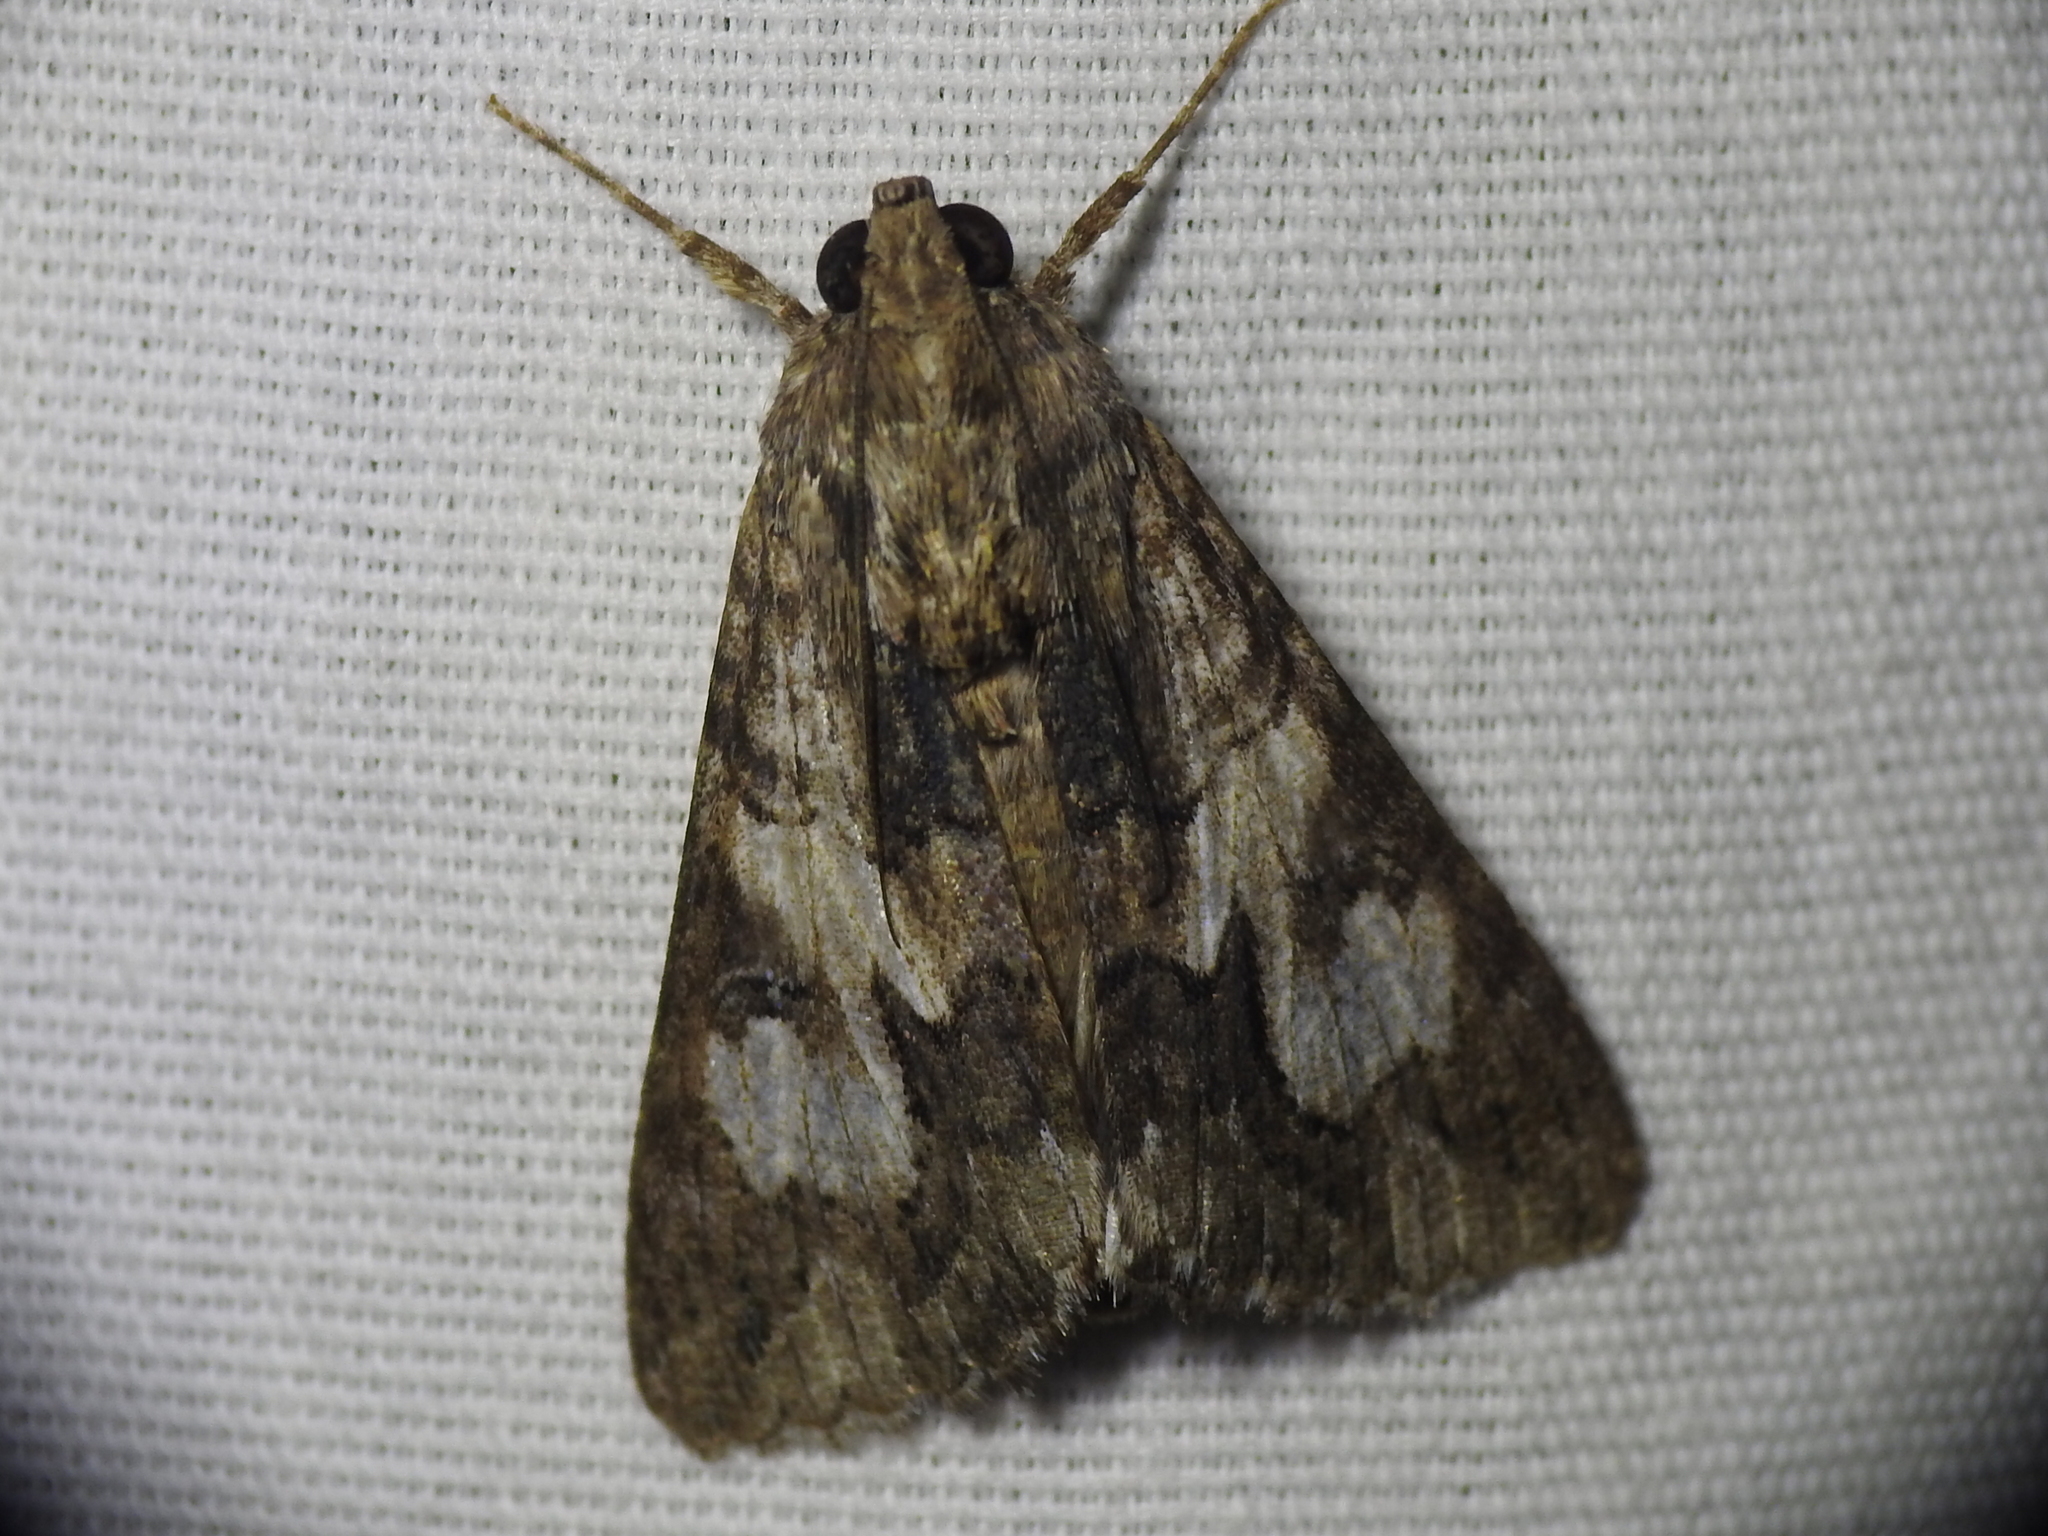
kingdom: Animalia
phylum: Arthropoda
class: Insecta
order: Lepidoptera
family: Erebidae
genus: Melipotis
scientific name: Melipotis jucunda
